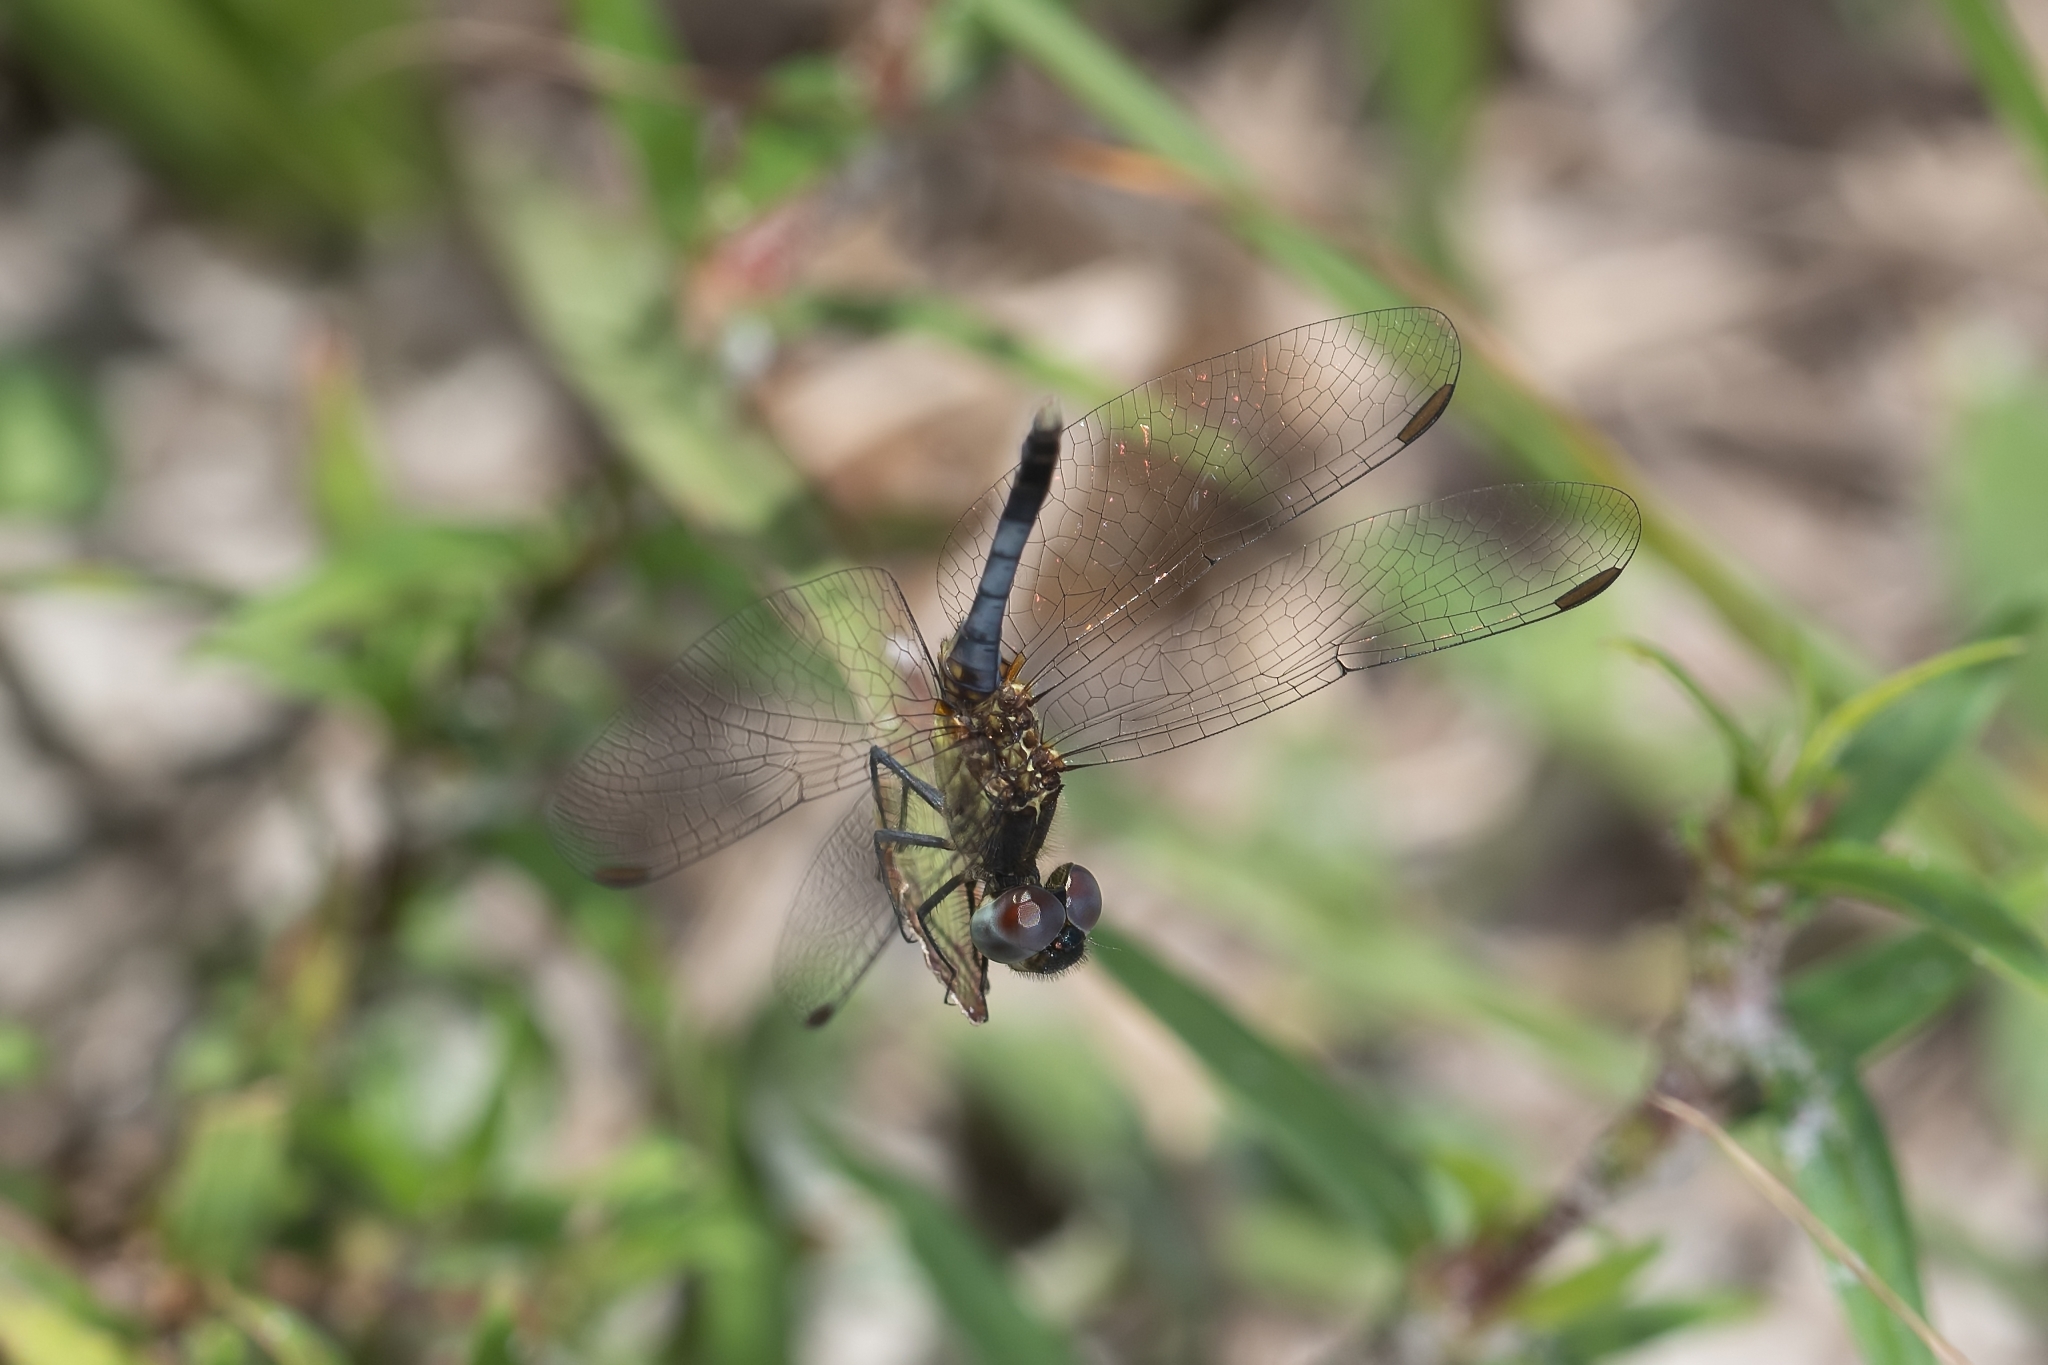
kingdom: Animalia
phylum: Arthropoda
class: Insecta
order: Odonata
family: Libellulidae
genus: Erythrodiplax
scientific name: Erythrodiplax minuscula
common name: Little blue dragonlet
